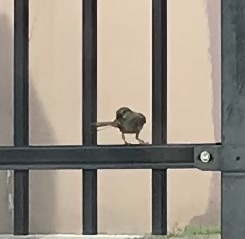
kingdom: Animalia
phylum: Chordata
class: Aves
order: Passeriformes
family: Passeridae
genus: Passer
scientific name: Passer domesticus
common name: House sparrow
